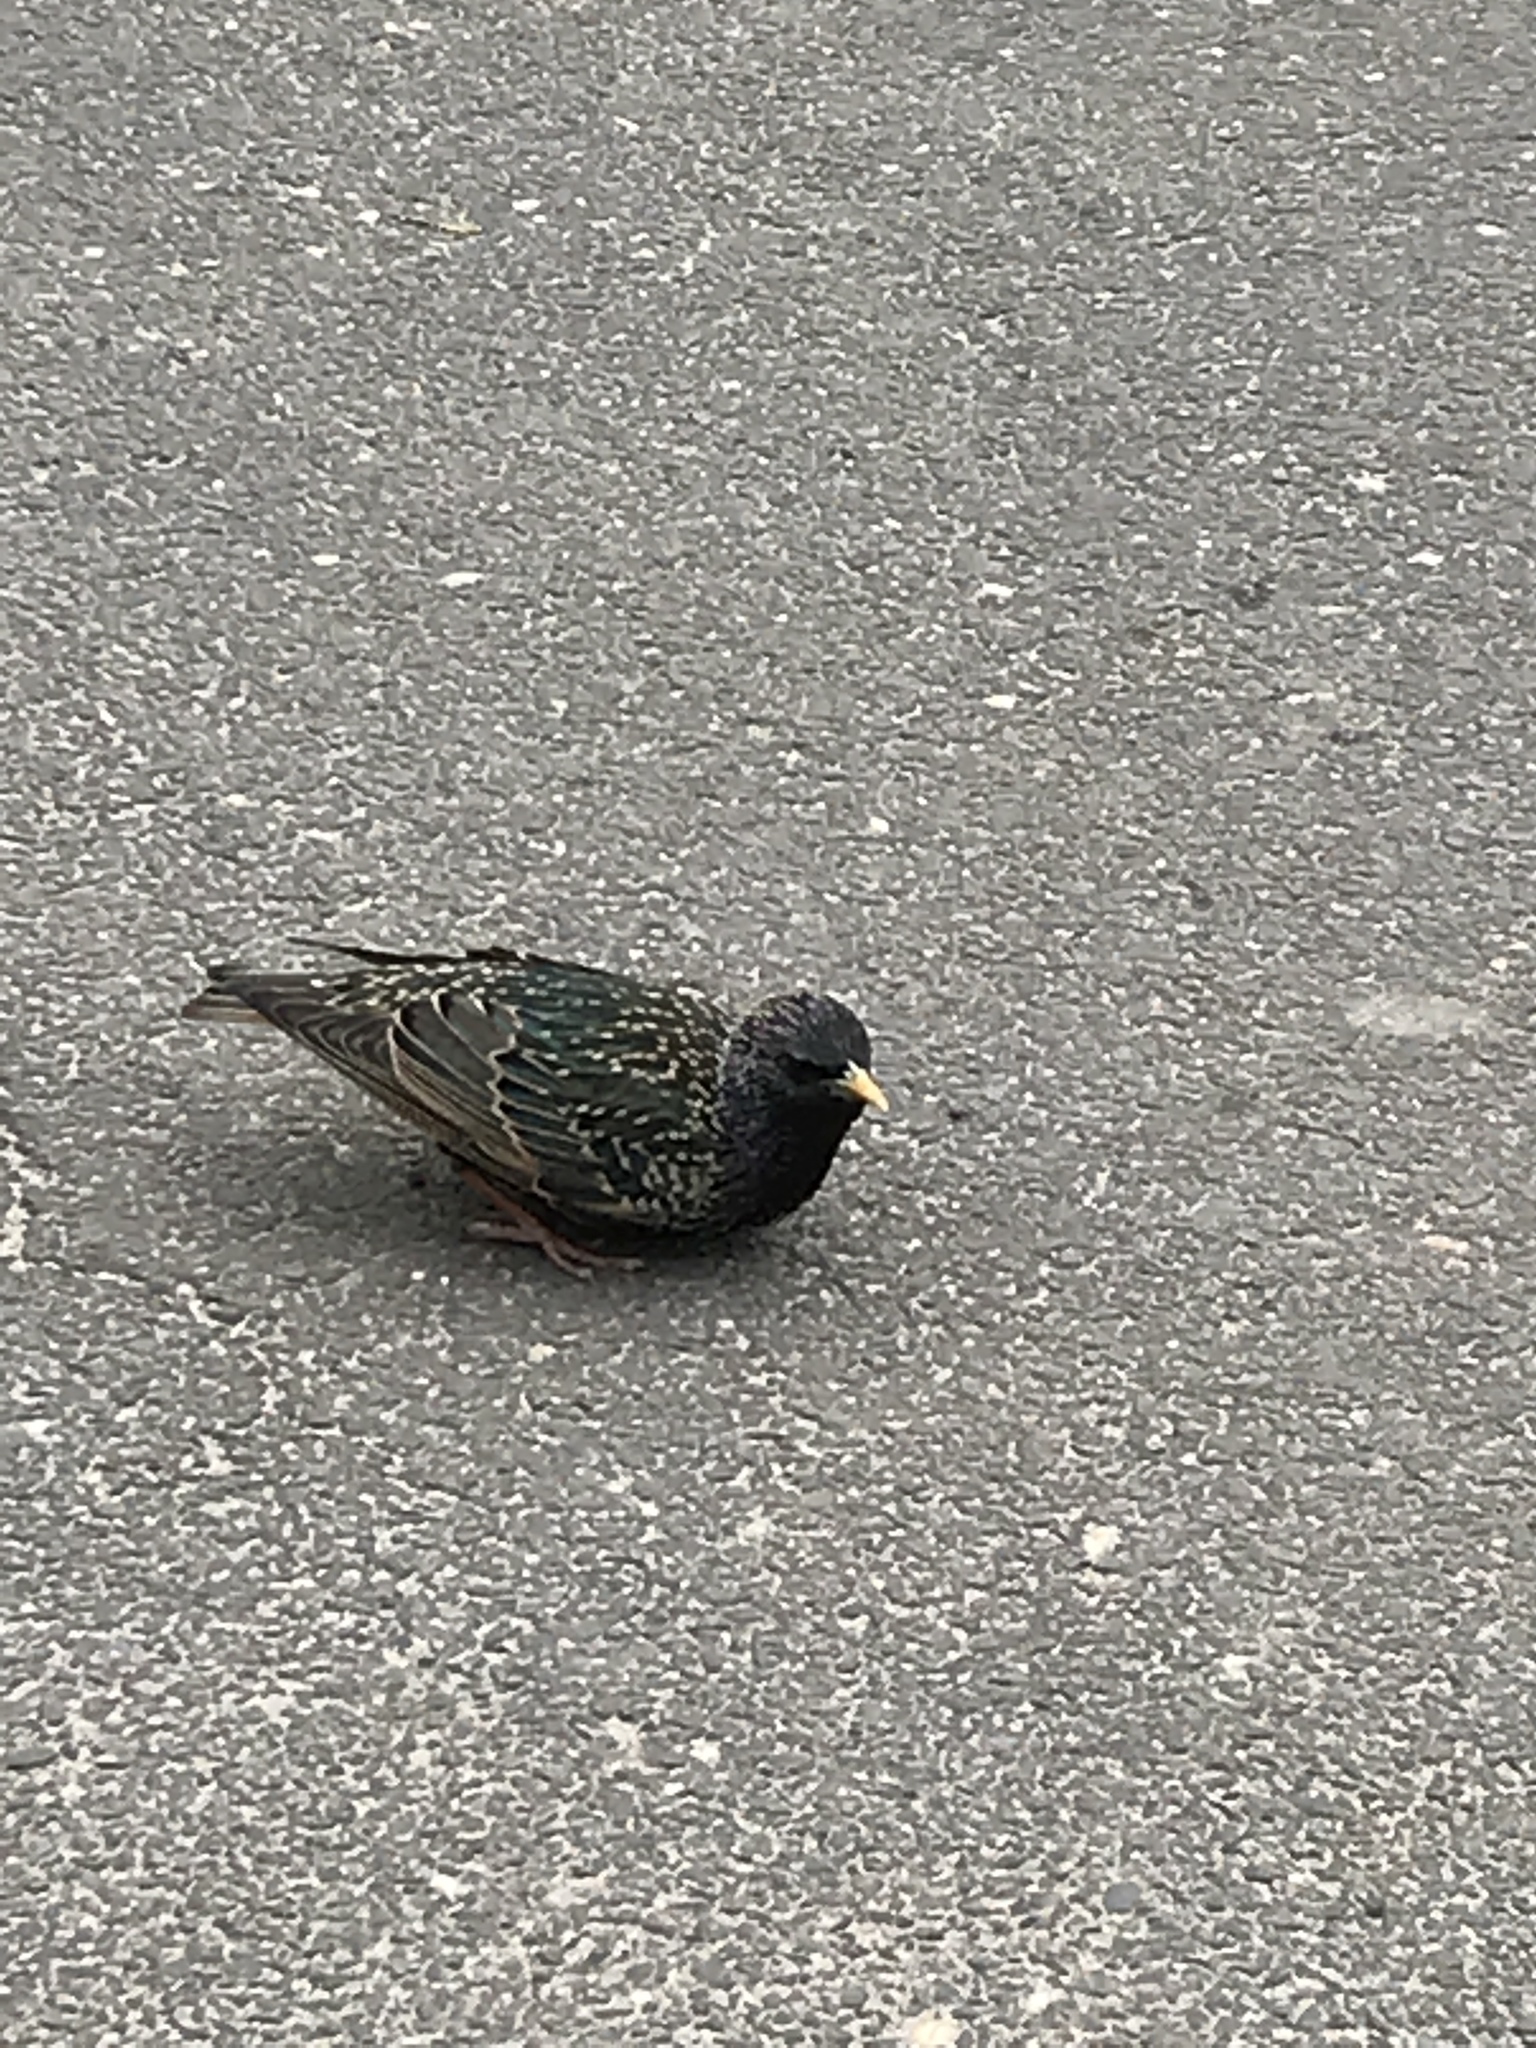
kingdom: Animalia
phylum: Chordata
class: Aves
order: Passeriformes
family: Sturnidae
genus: Sturnus
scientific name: Sturnus vulgaris
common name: Common starling
